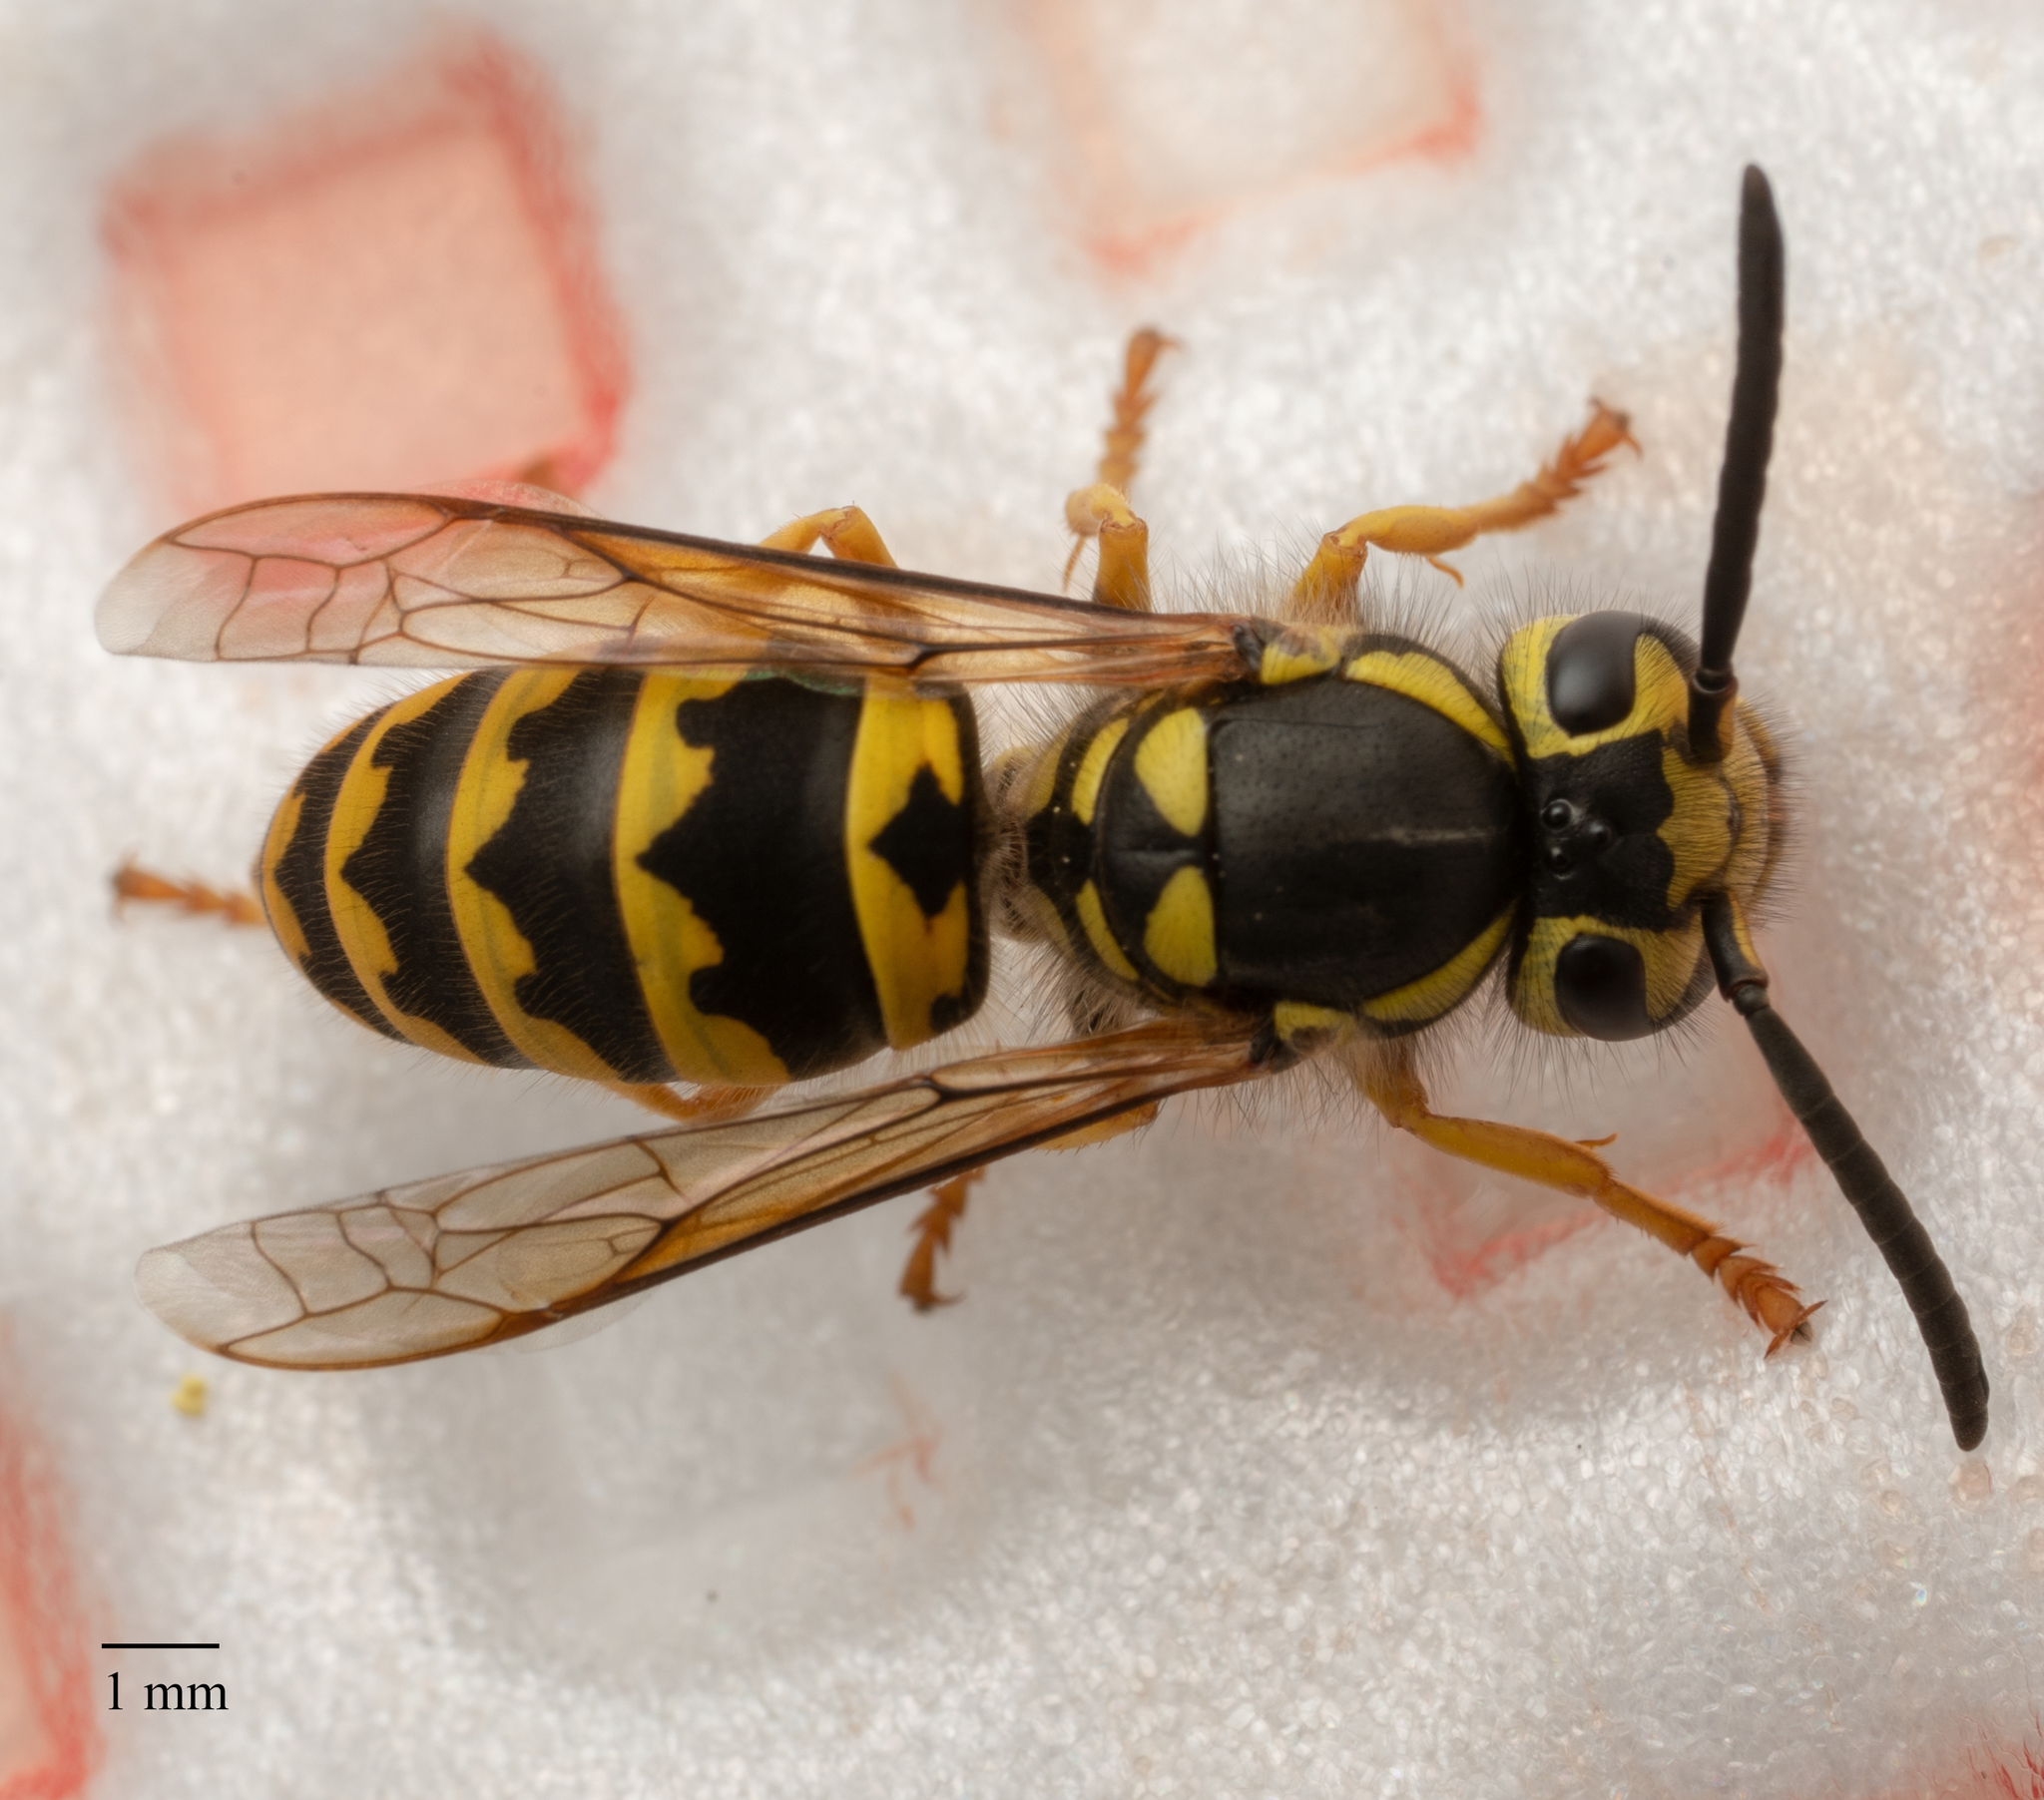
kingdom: Animalia
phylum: Arthropoda
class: Insecta
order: Hymenoptera
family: Vespidae
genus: Vespula
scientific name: Vespula pensylvanica
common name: Western yellowjacket
